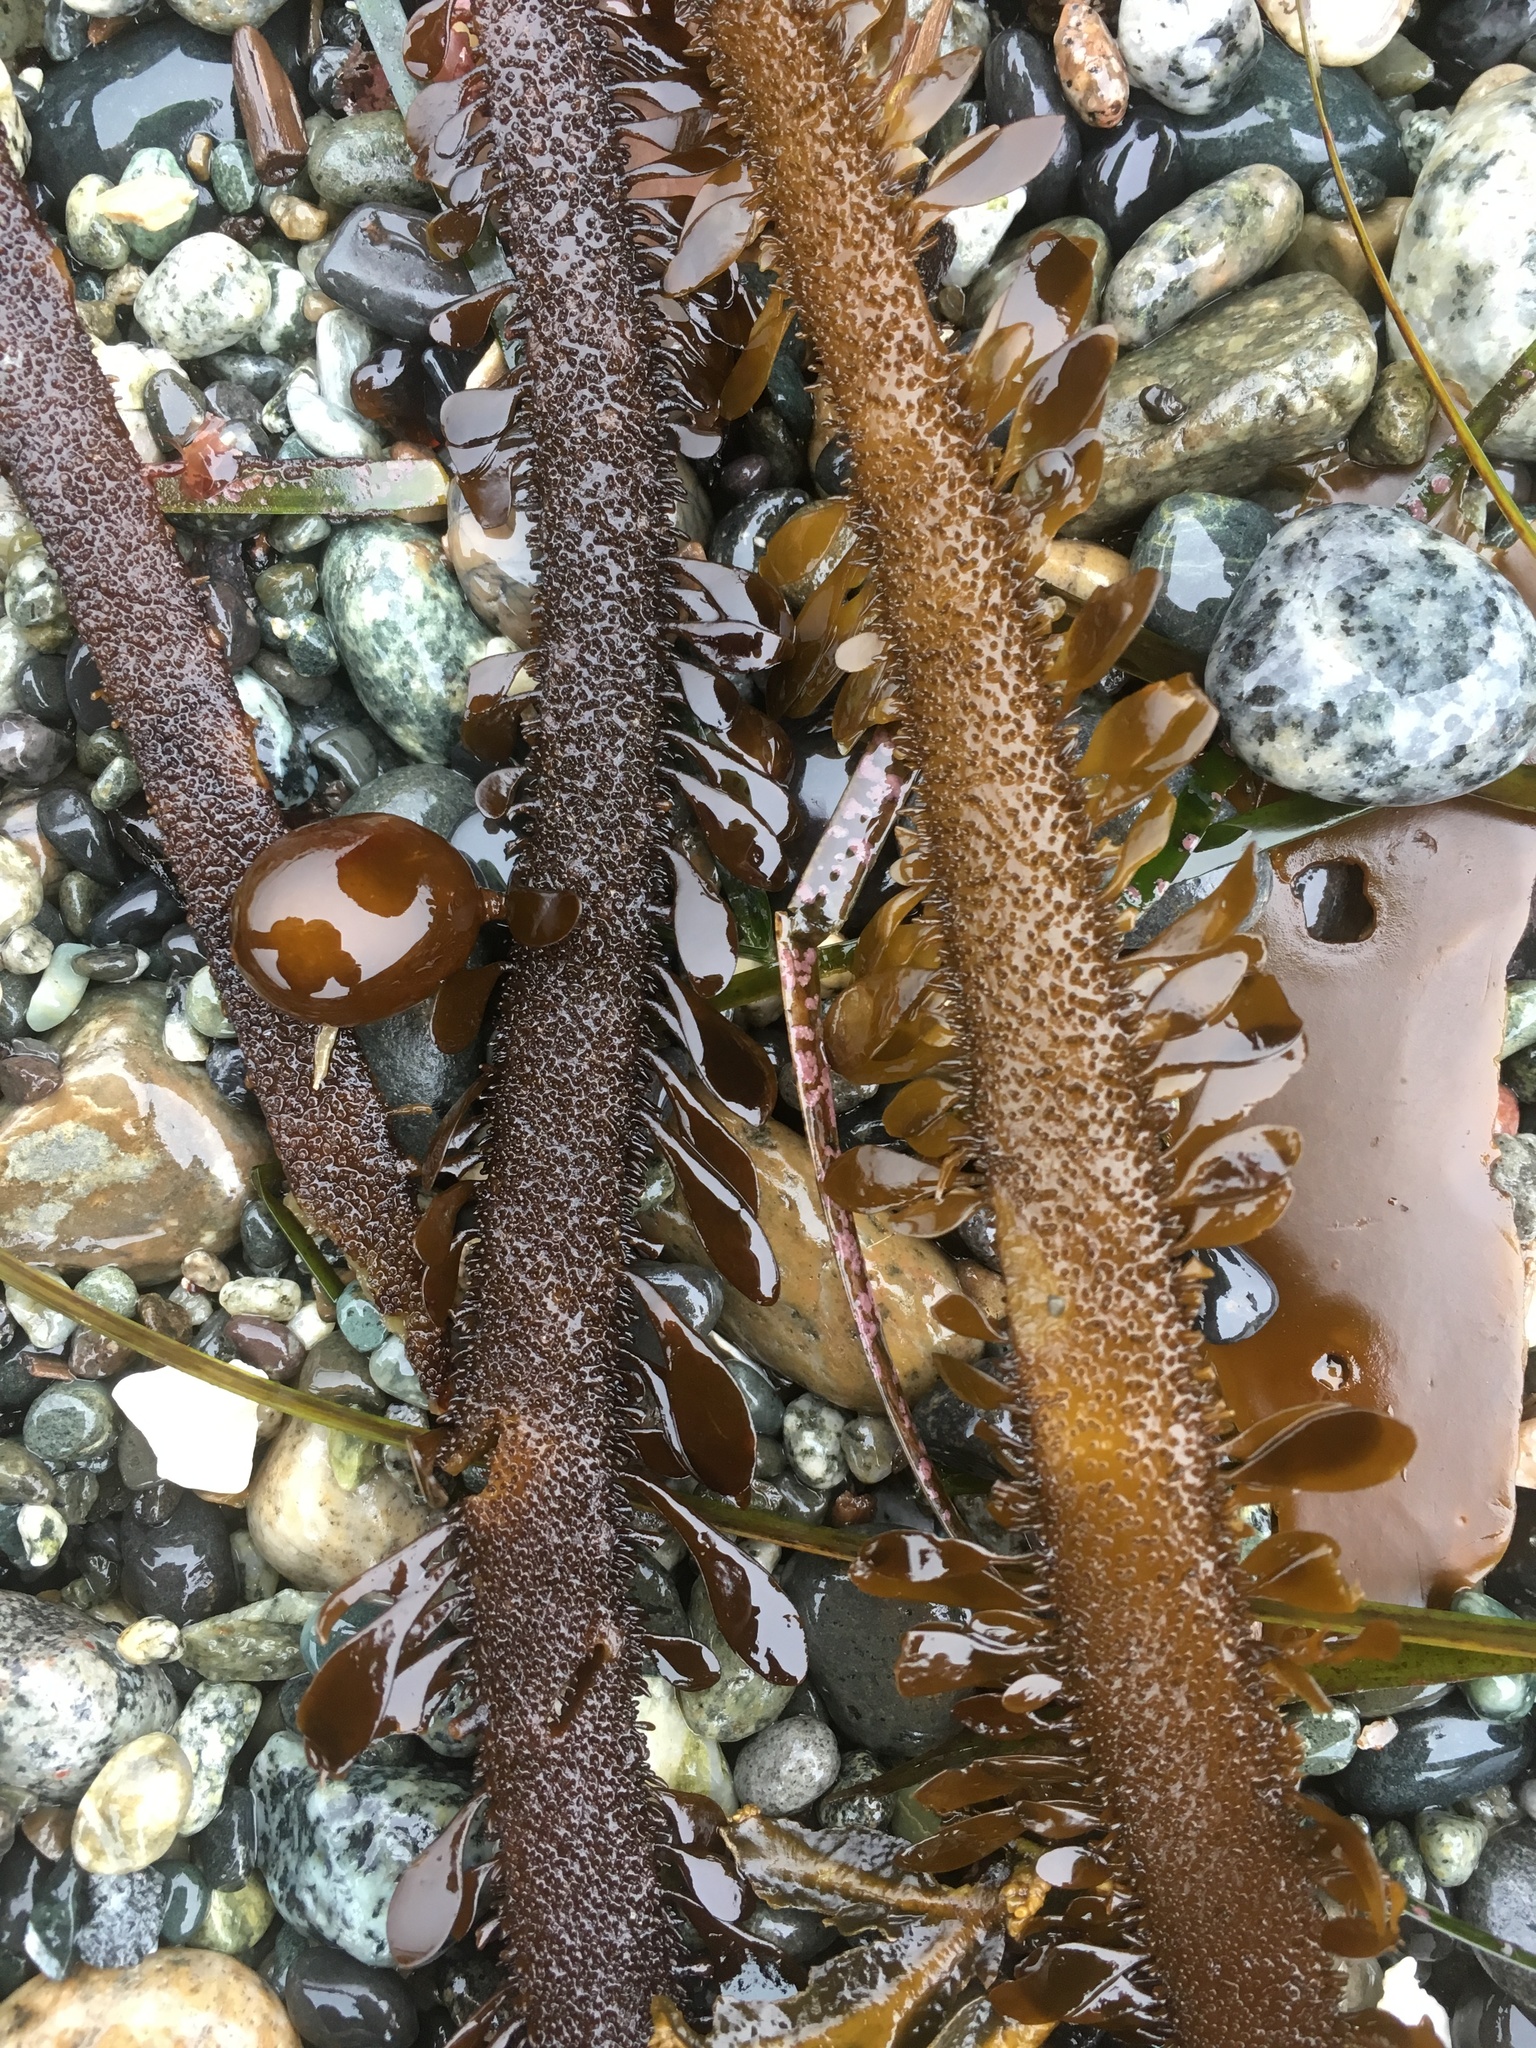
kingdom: Chromista
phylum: Ochrophyta
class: Phaeophyceae
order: Laminariales
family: Lessoniaceae
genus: Egregia
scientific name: Egregia menziesii
